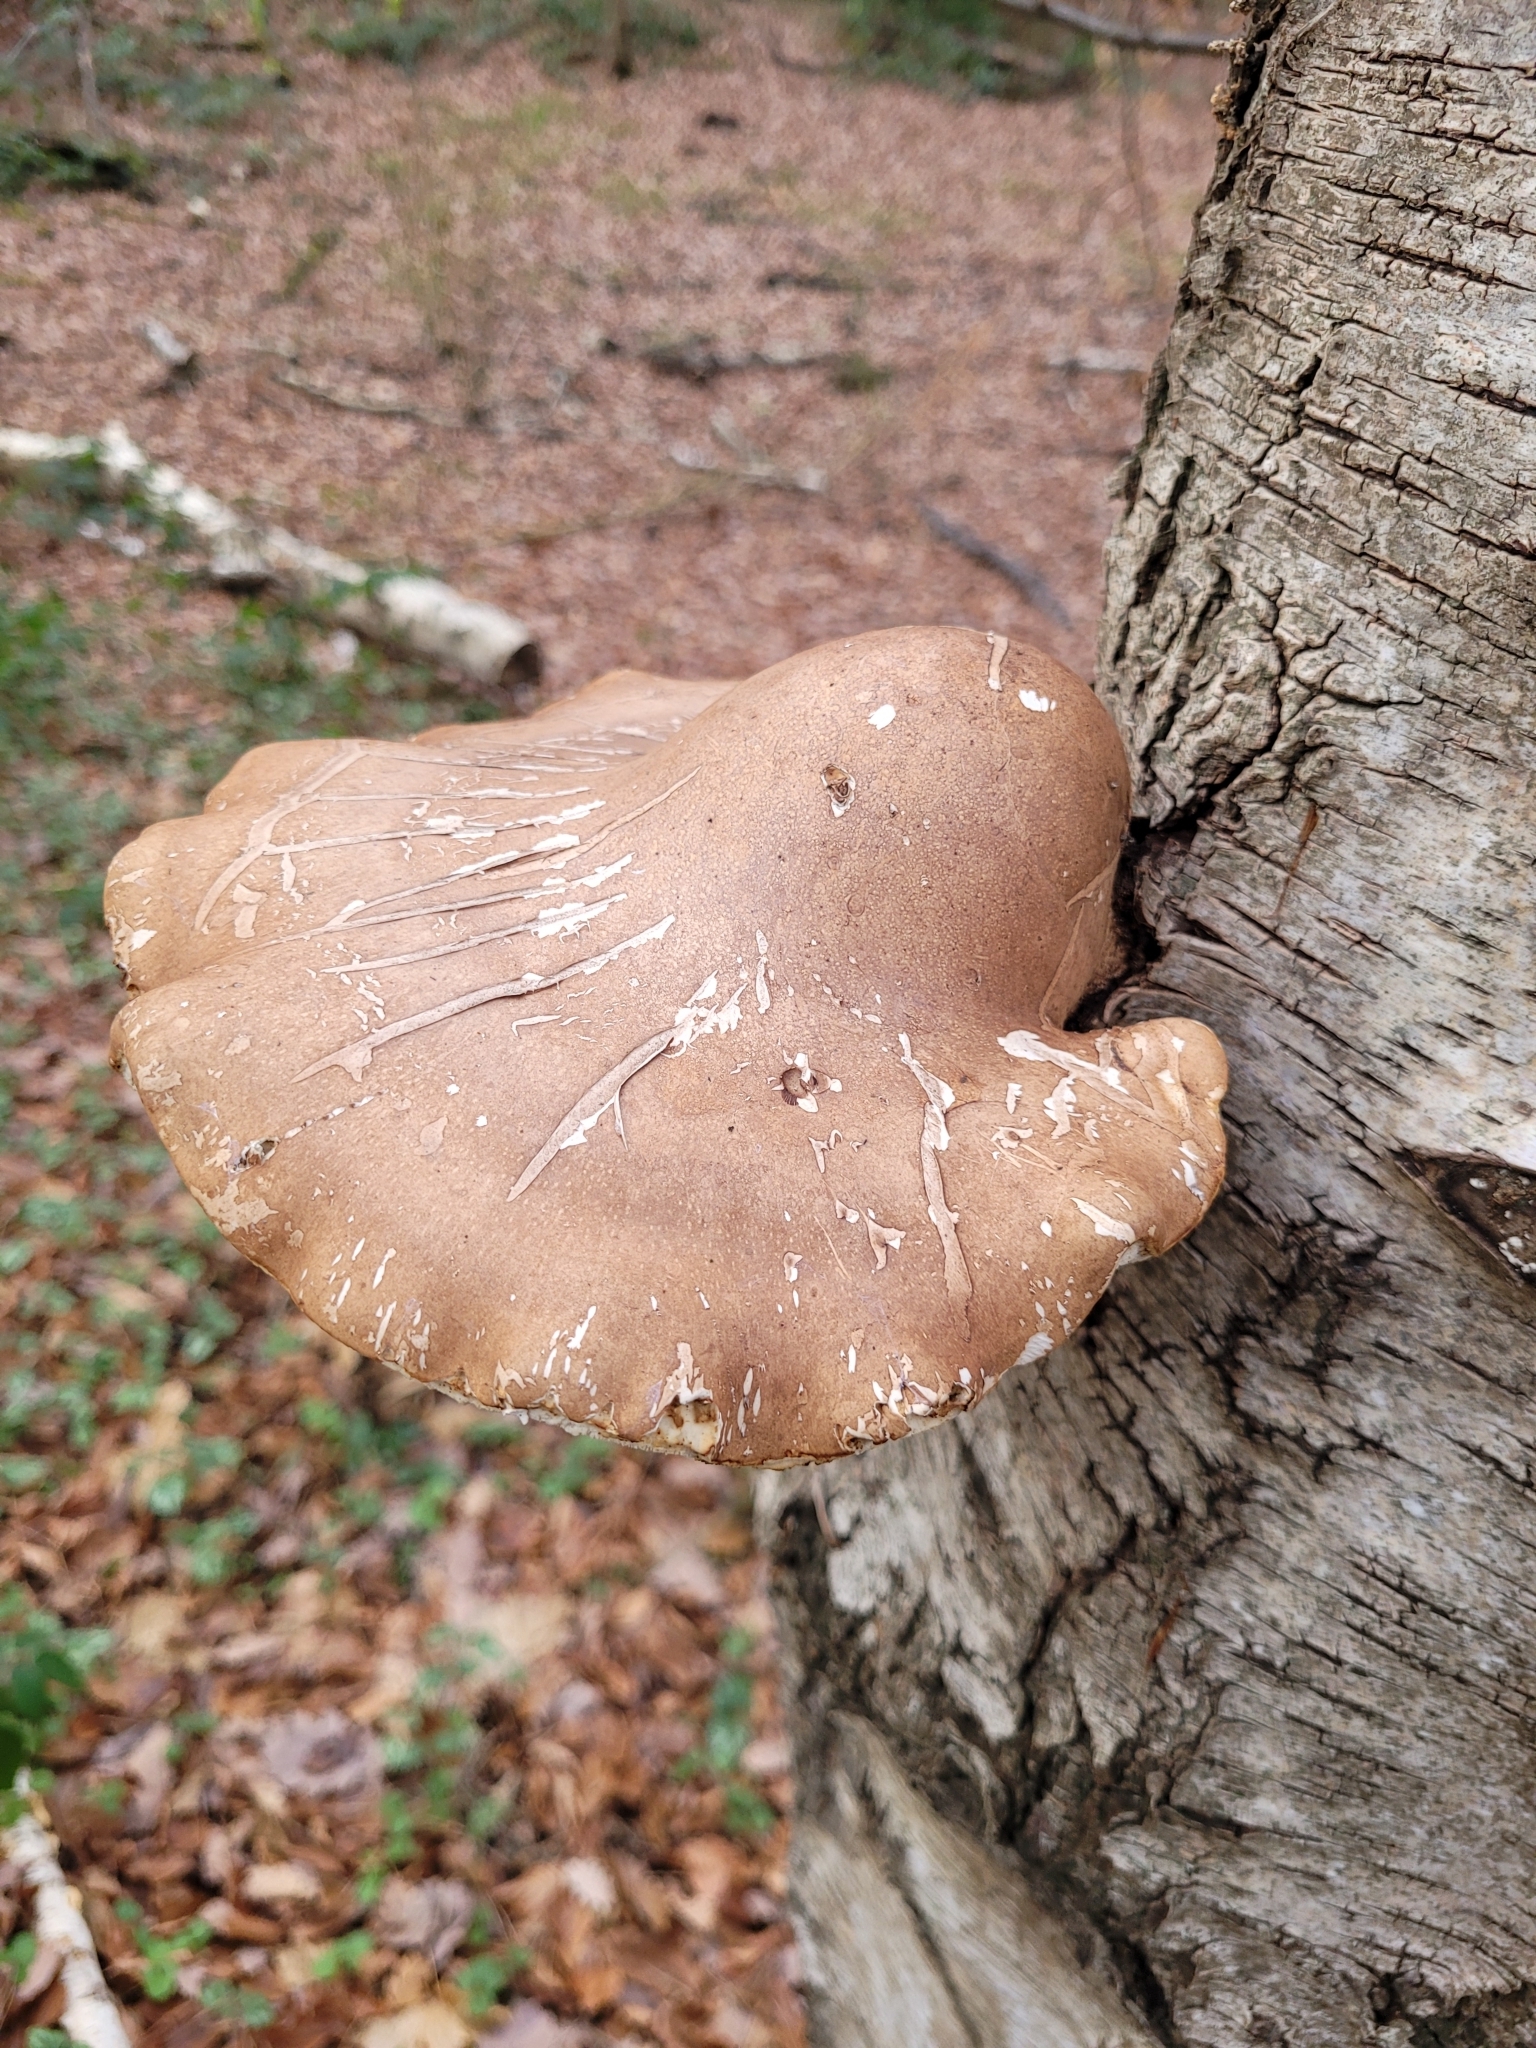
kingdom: Fungi
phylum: Basidiomycota
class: Agaricomycetes
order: Polyporales
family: Fomitopsidaceae
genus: Fomitopsis
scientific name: Fomitopsis betulina
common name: Birch polypore
